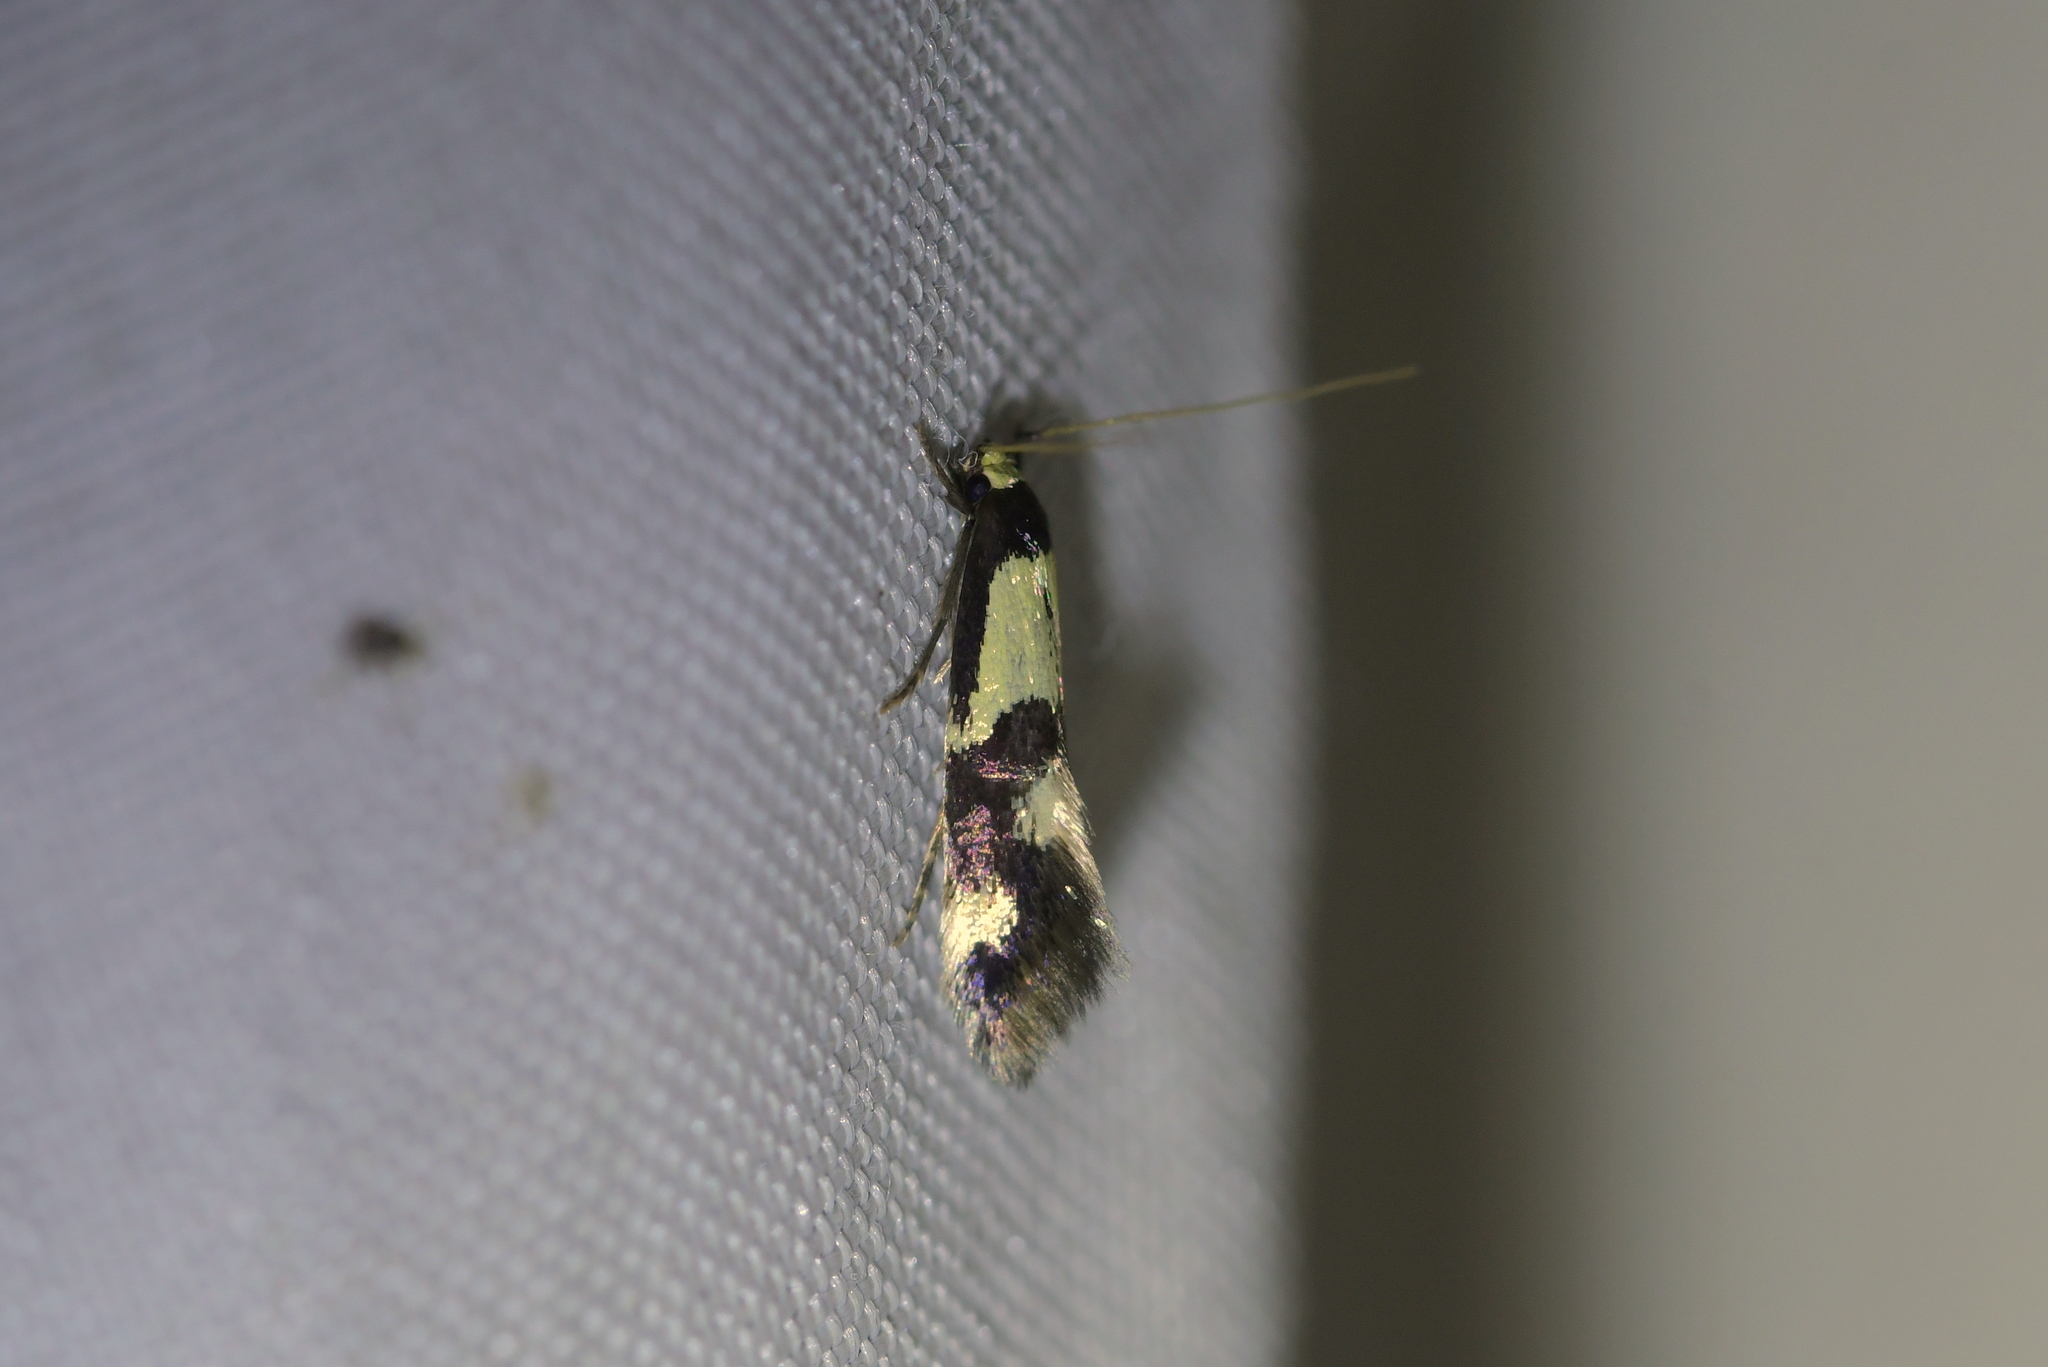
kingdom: Animalia
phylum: Arthropoda
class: Insecta
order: Lepidoptera
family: Tineidae
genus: Opogona
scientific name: Opogona comptella
